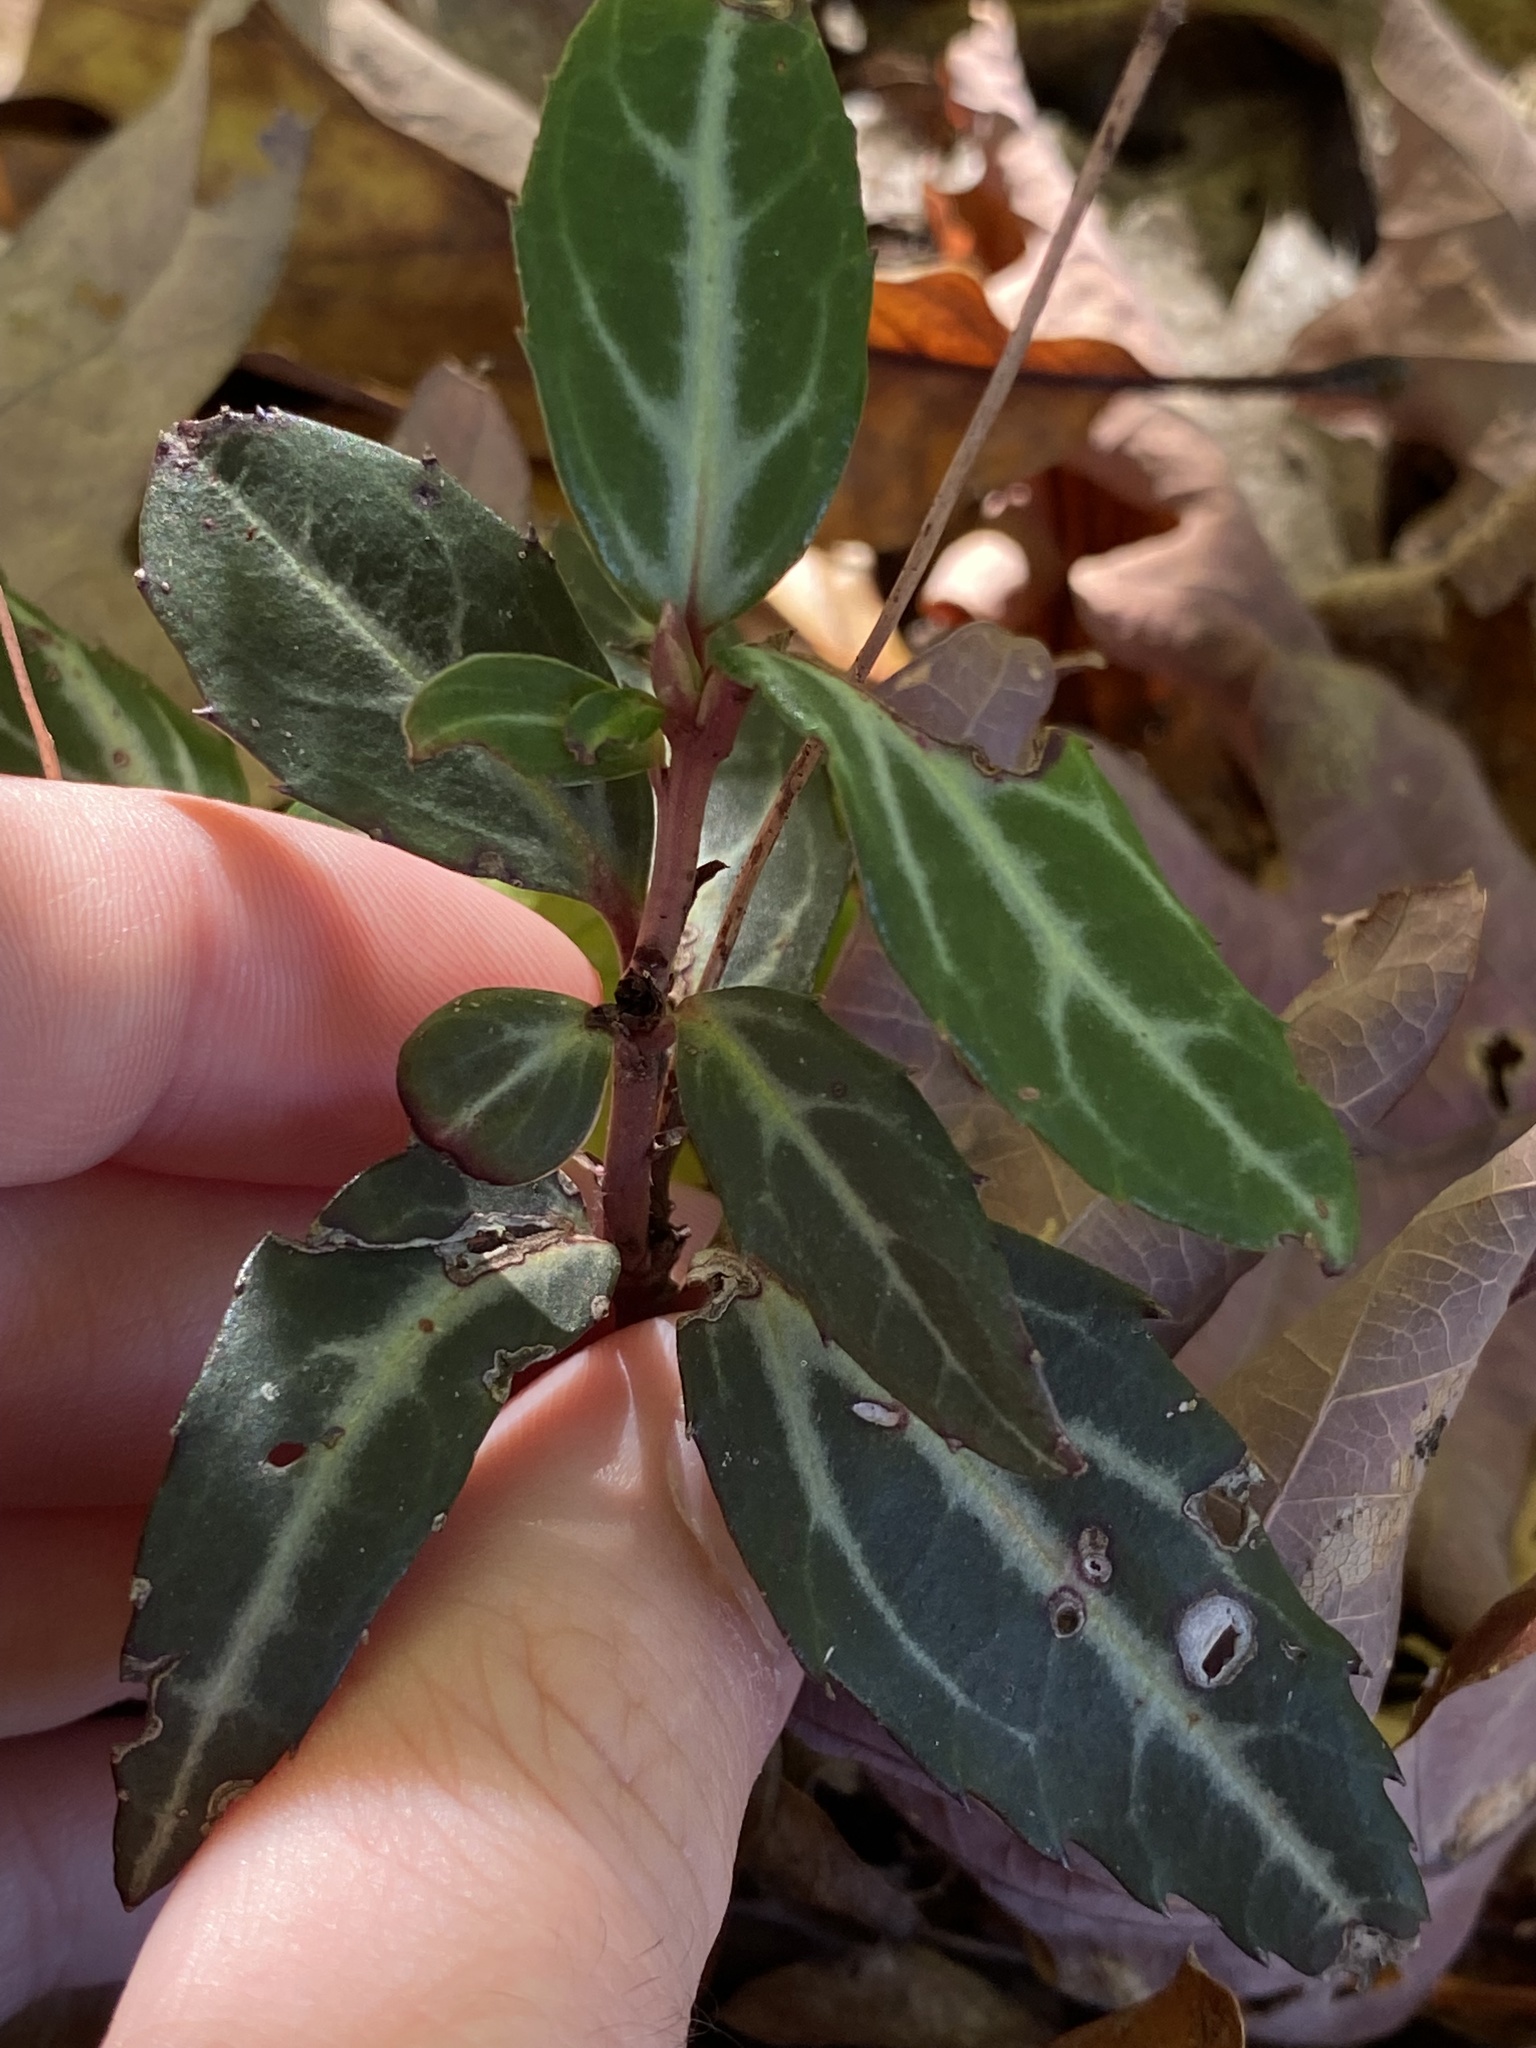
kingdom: Plantae
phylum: Tracheophyta
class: Magnoliopsida
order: Ericales
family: Ericaceae
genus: Chimaphila
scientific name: Chimaphila maculata
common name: Spotted pipsissewa
